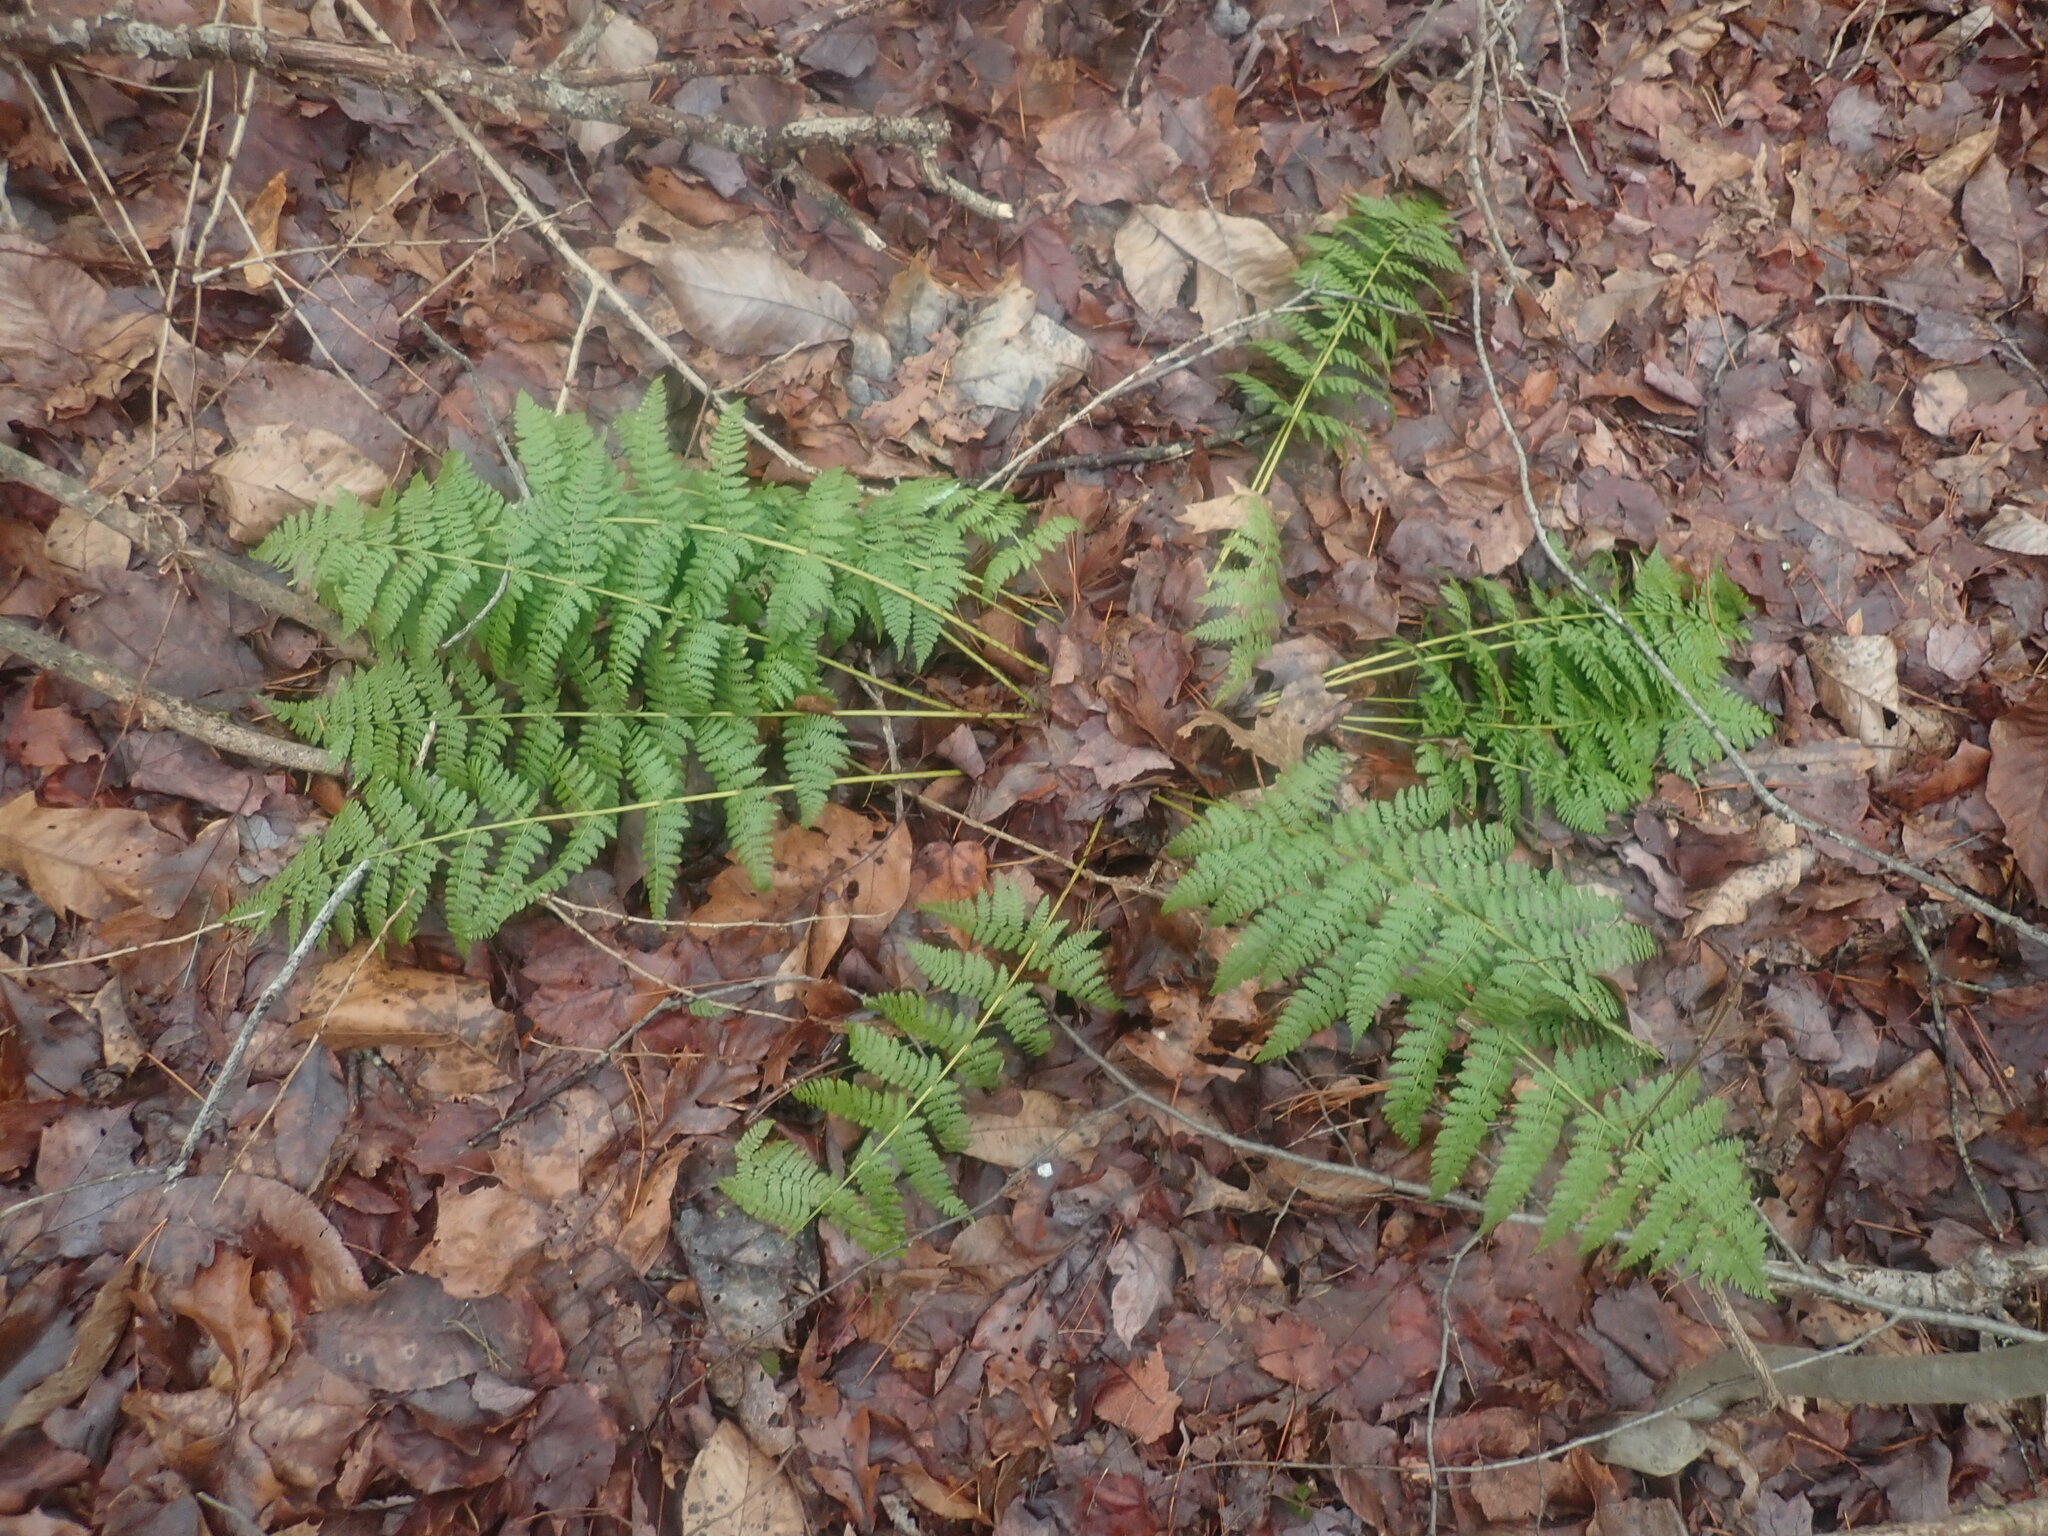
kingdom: Plantae
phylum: Tracheophyta
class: Polypodiopsida
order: Polypodiales
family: Dryopteridaceae
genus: Dryopteris
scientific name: Dryopteris intermedia
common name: Evergreen wood fern
